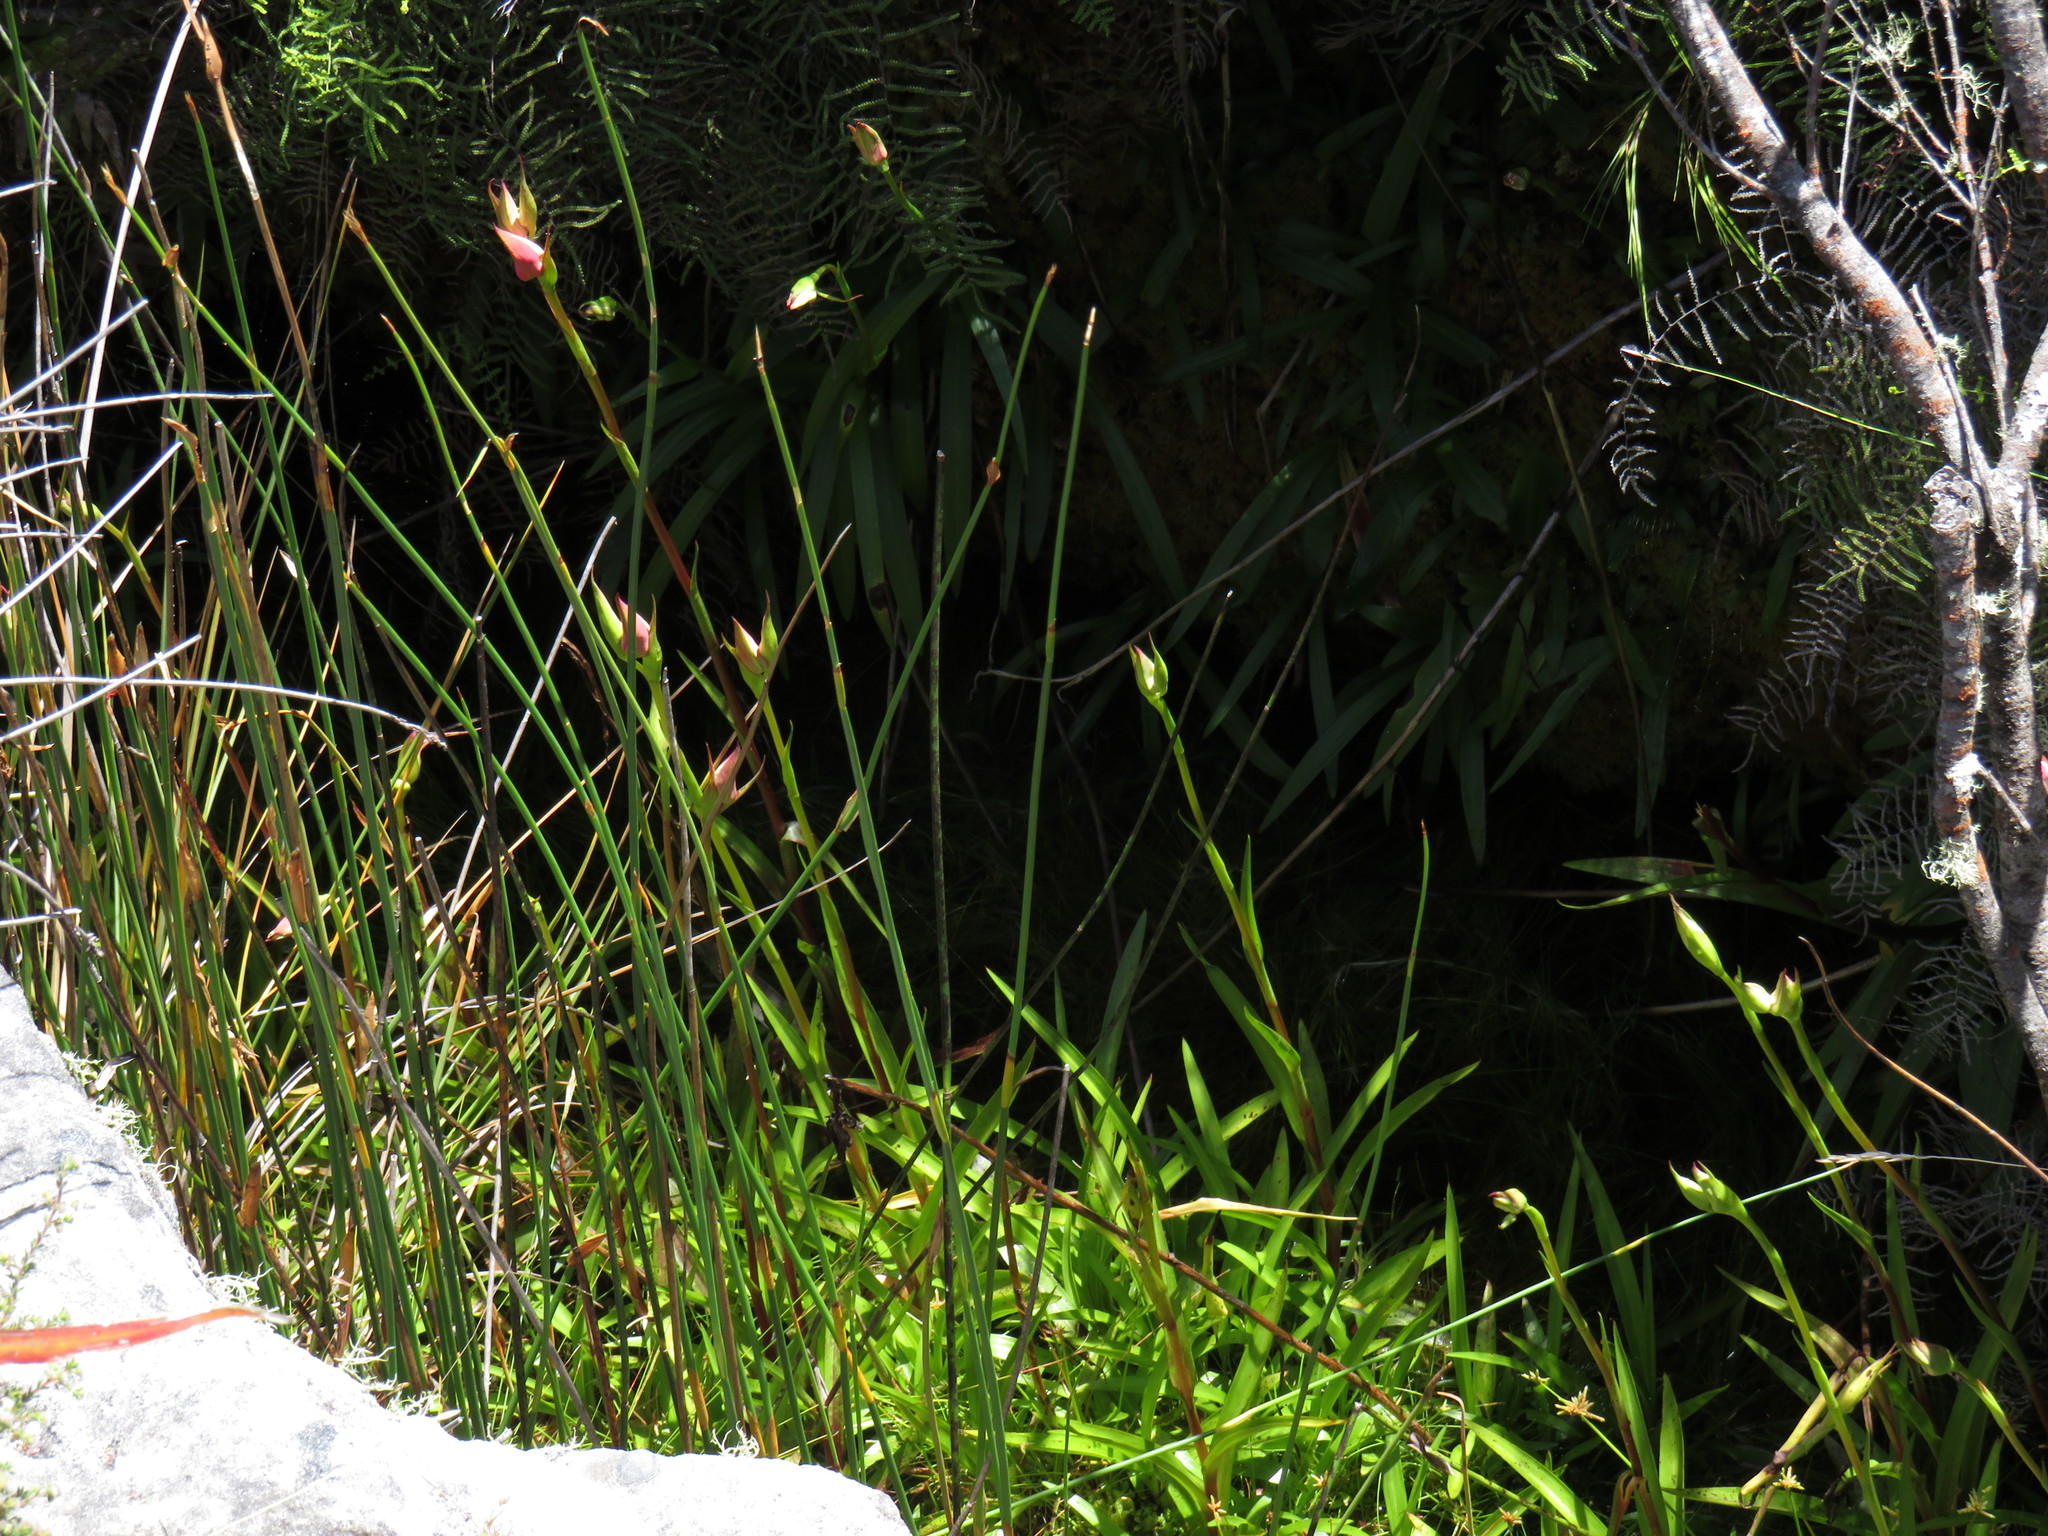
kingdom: Plantae
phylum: Tracheophyta
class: Liliopsida
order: Asparagales
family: Orchidaceae
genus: Disa
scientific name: Disa uniflora
